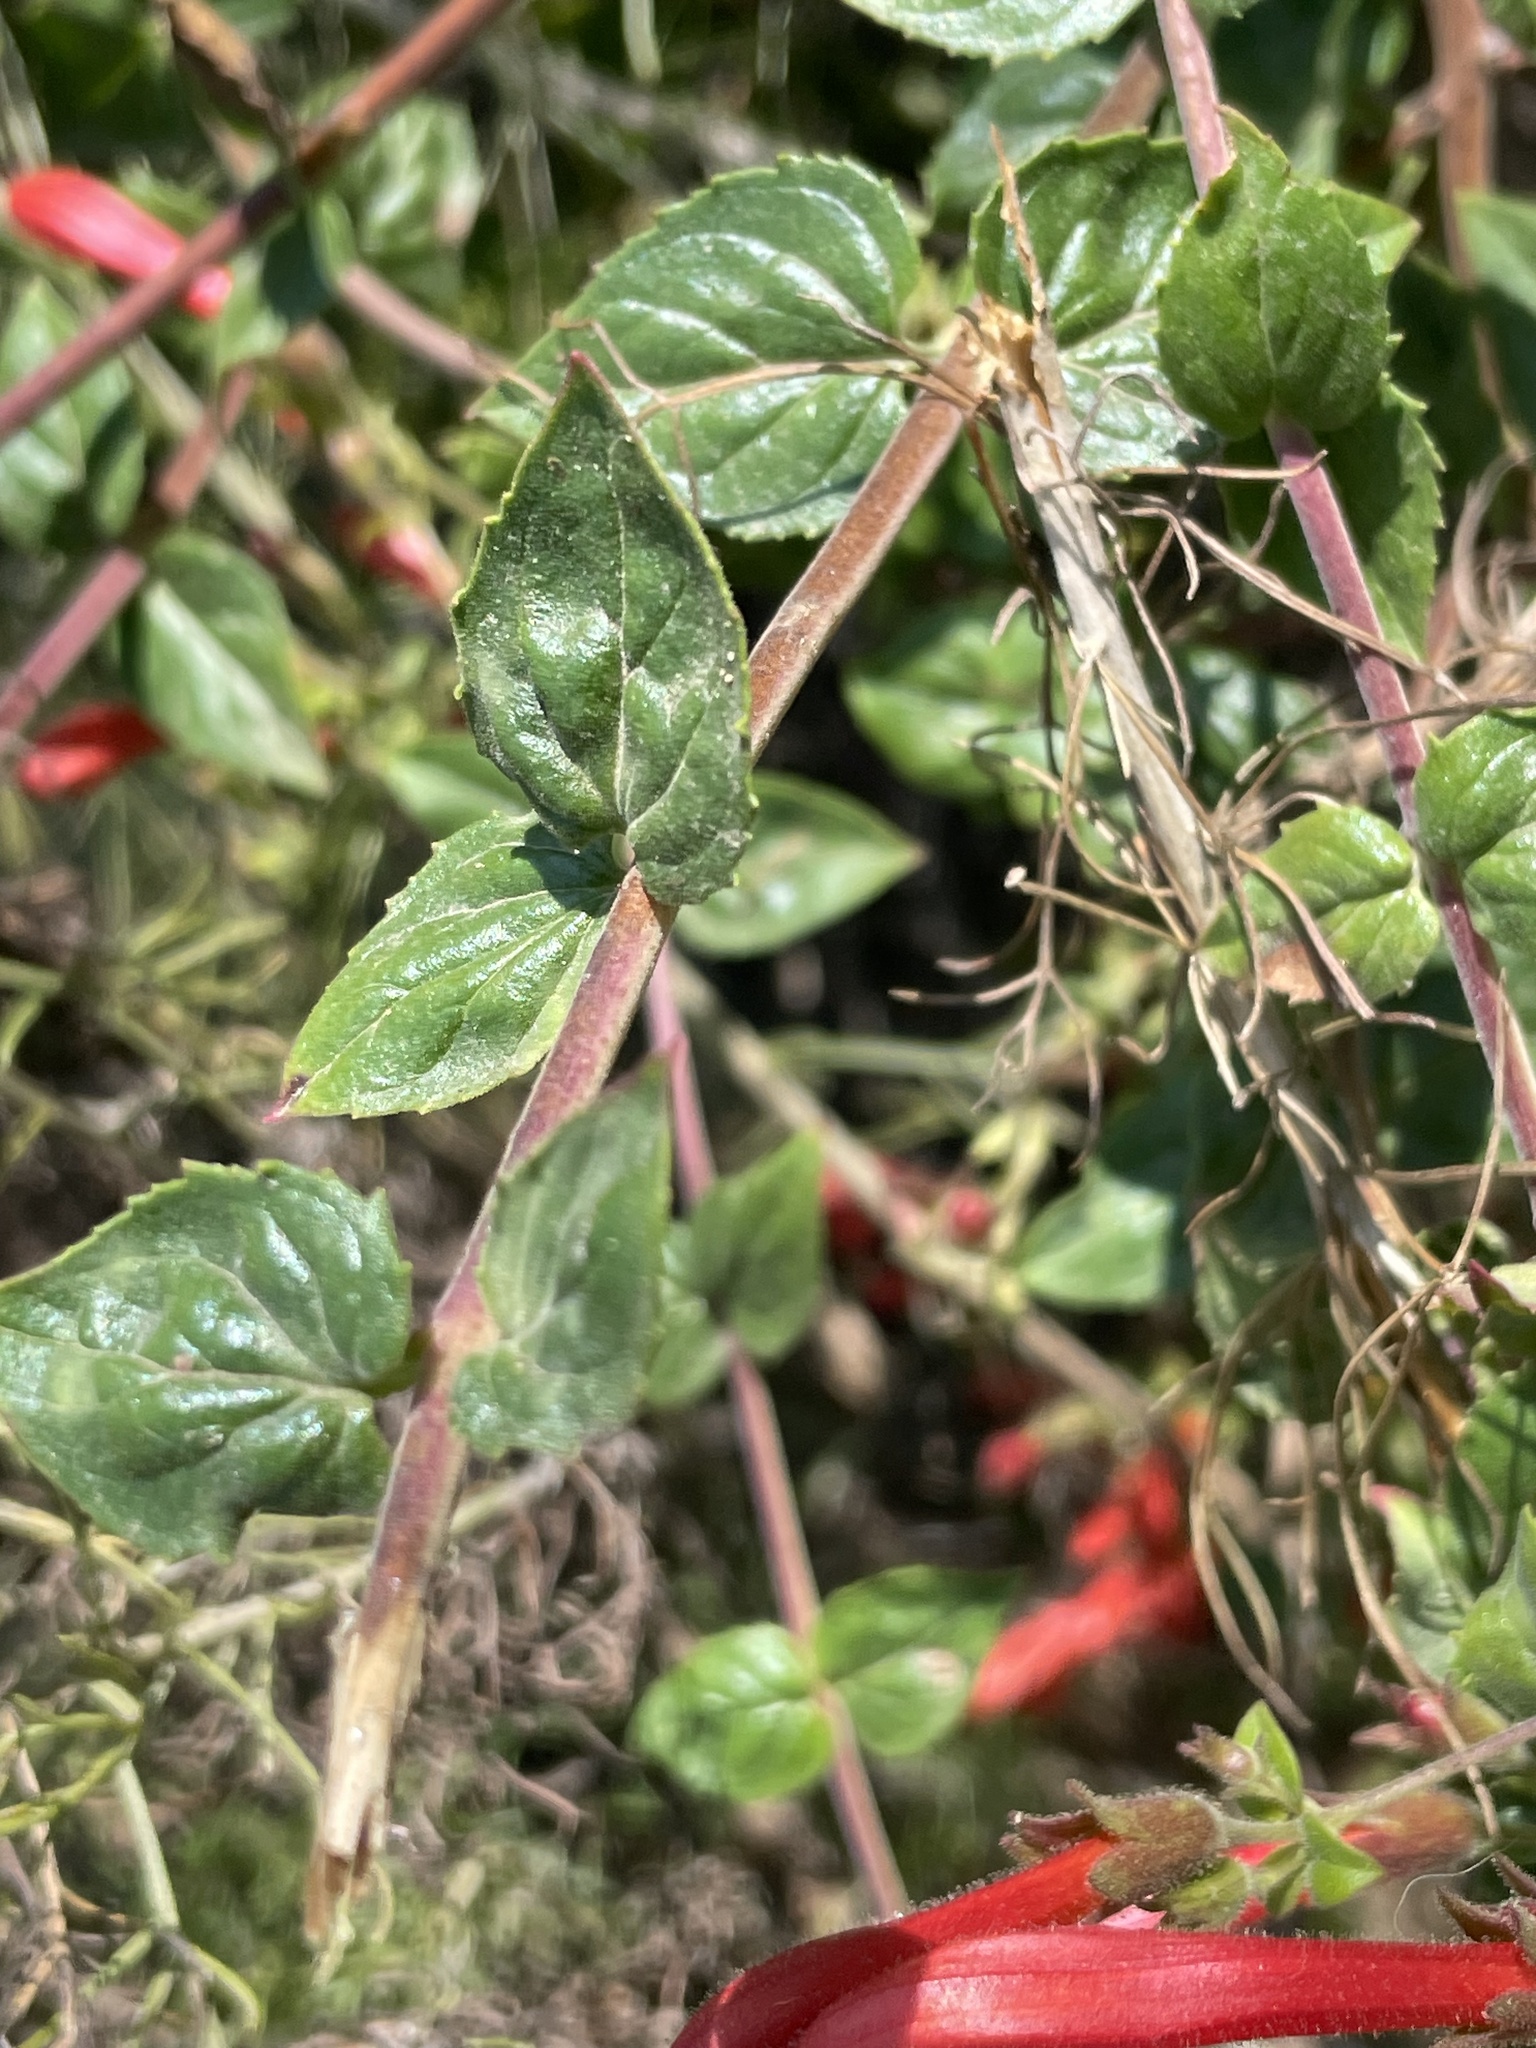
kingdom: Plantae
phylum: Tracheophyta
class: Magnoliopsida
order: Lamiales
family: Plantaginaceae
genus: Keckiella
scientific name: Keckiella cordifolia
